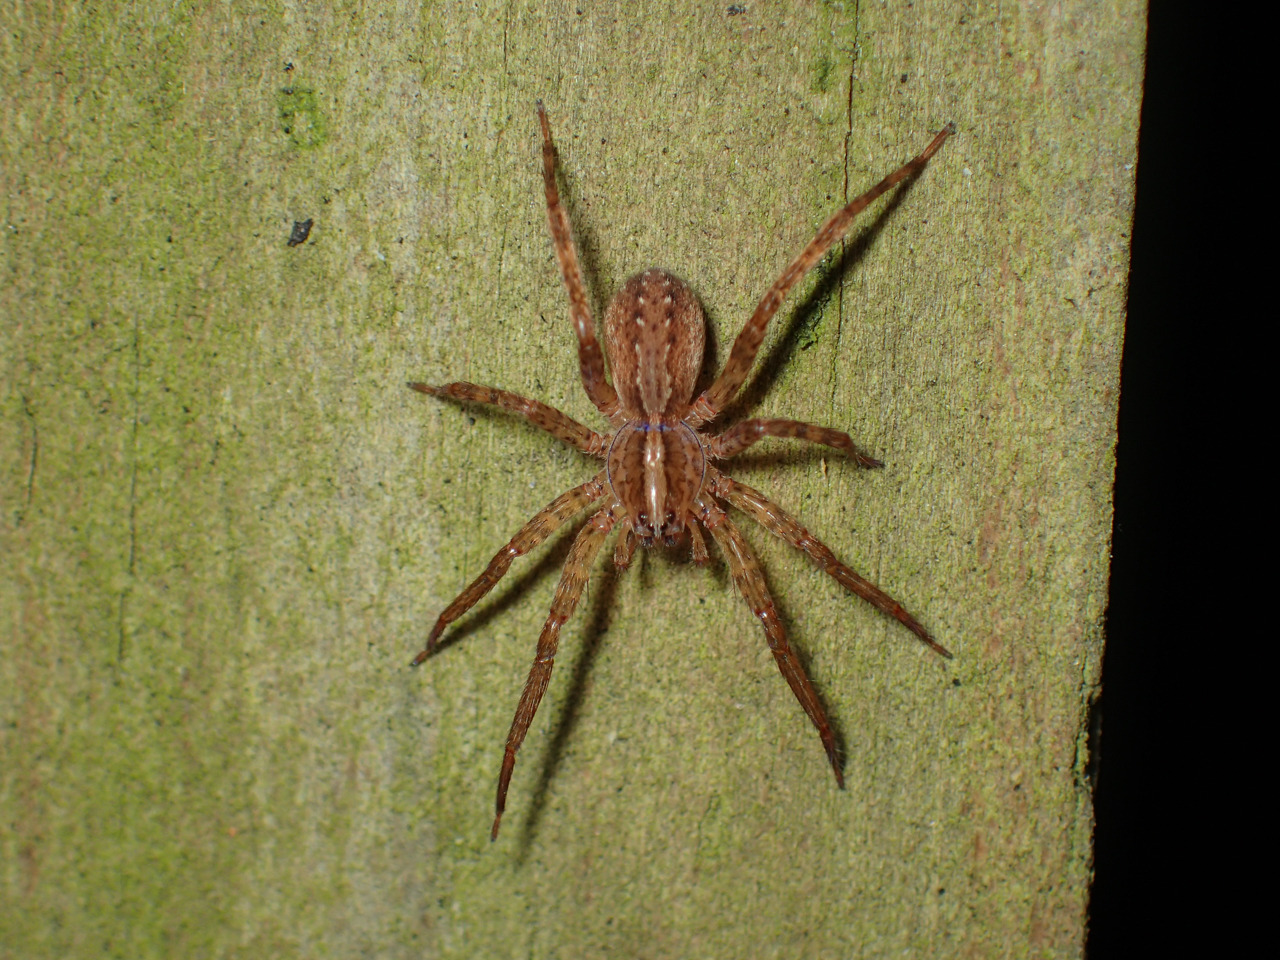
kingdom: Animalia
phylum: Arthropoda
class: Arachnida
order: Araneae
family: Ctenidae
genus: Anahita
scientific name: Anahita punctulata
